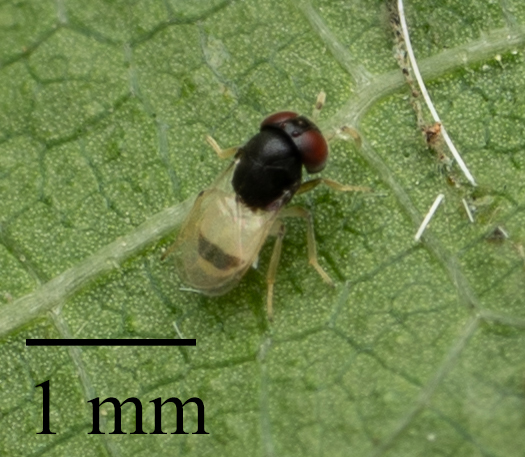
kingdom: Animalia
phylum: Arthropoda
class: Insecta
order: Hymenoptera
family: Pteromalidae
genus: Idioporus
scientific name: Idioporus affinis
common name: Pteromalid wasp
